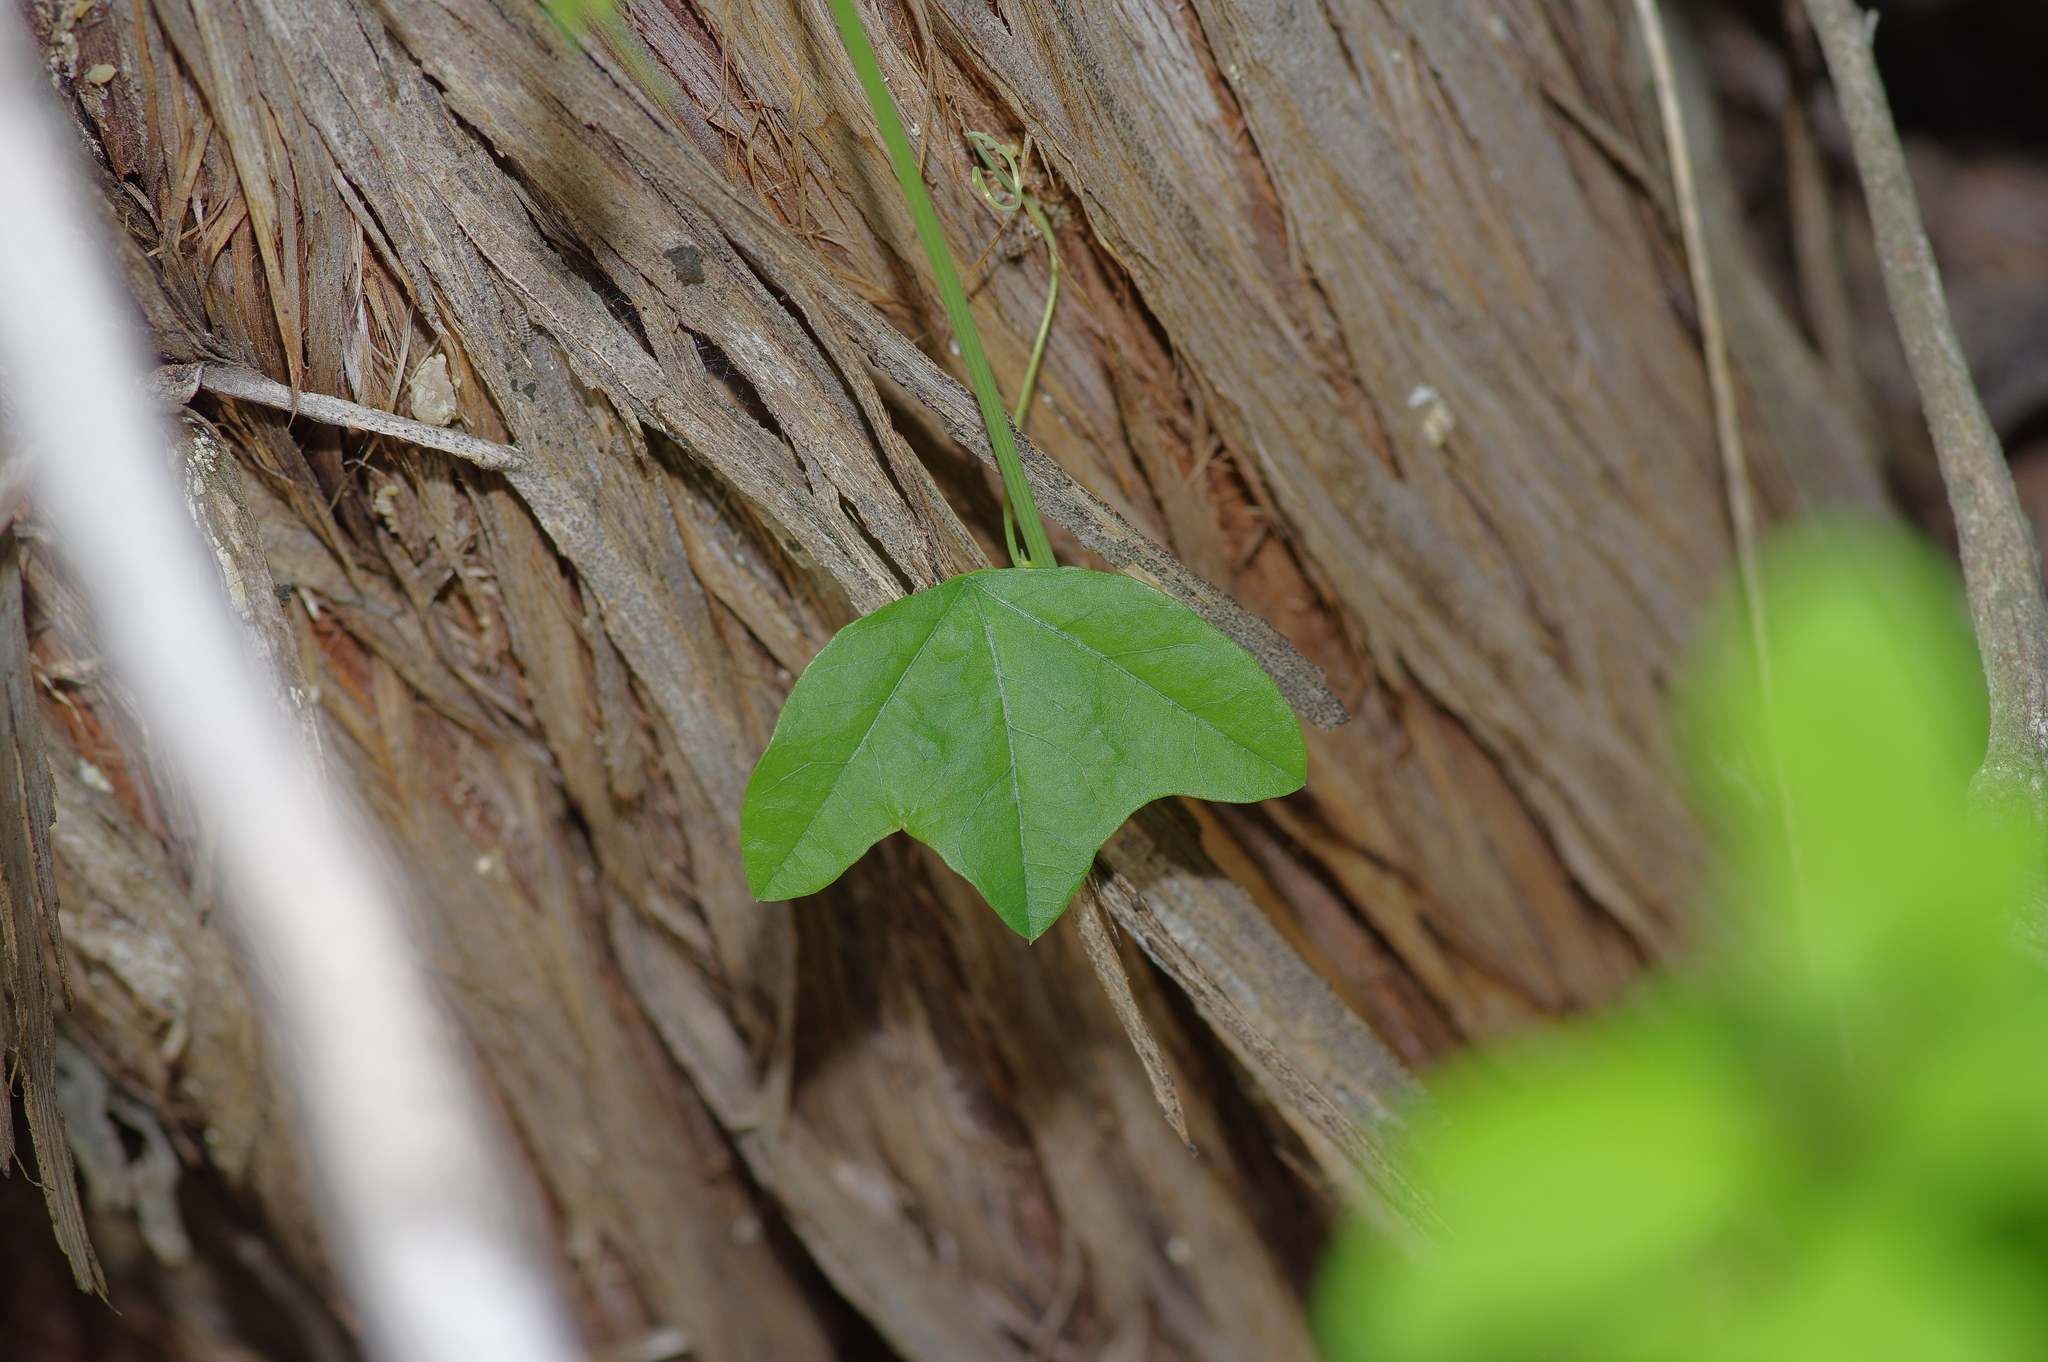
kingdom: Plantae
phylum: Tracheophyta
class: Magnoliopsida
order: Malpighiales
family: Passifloraceae
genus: Passiflora
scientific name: Passiflora lutea
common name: Yellow passionflower
